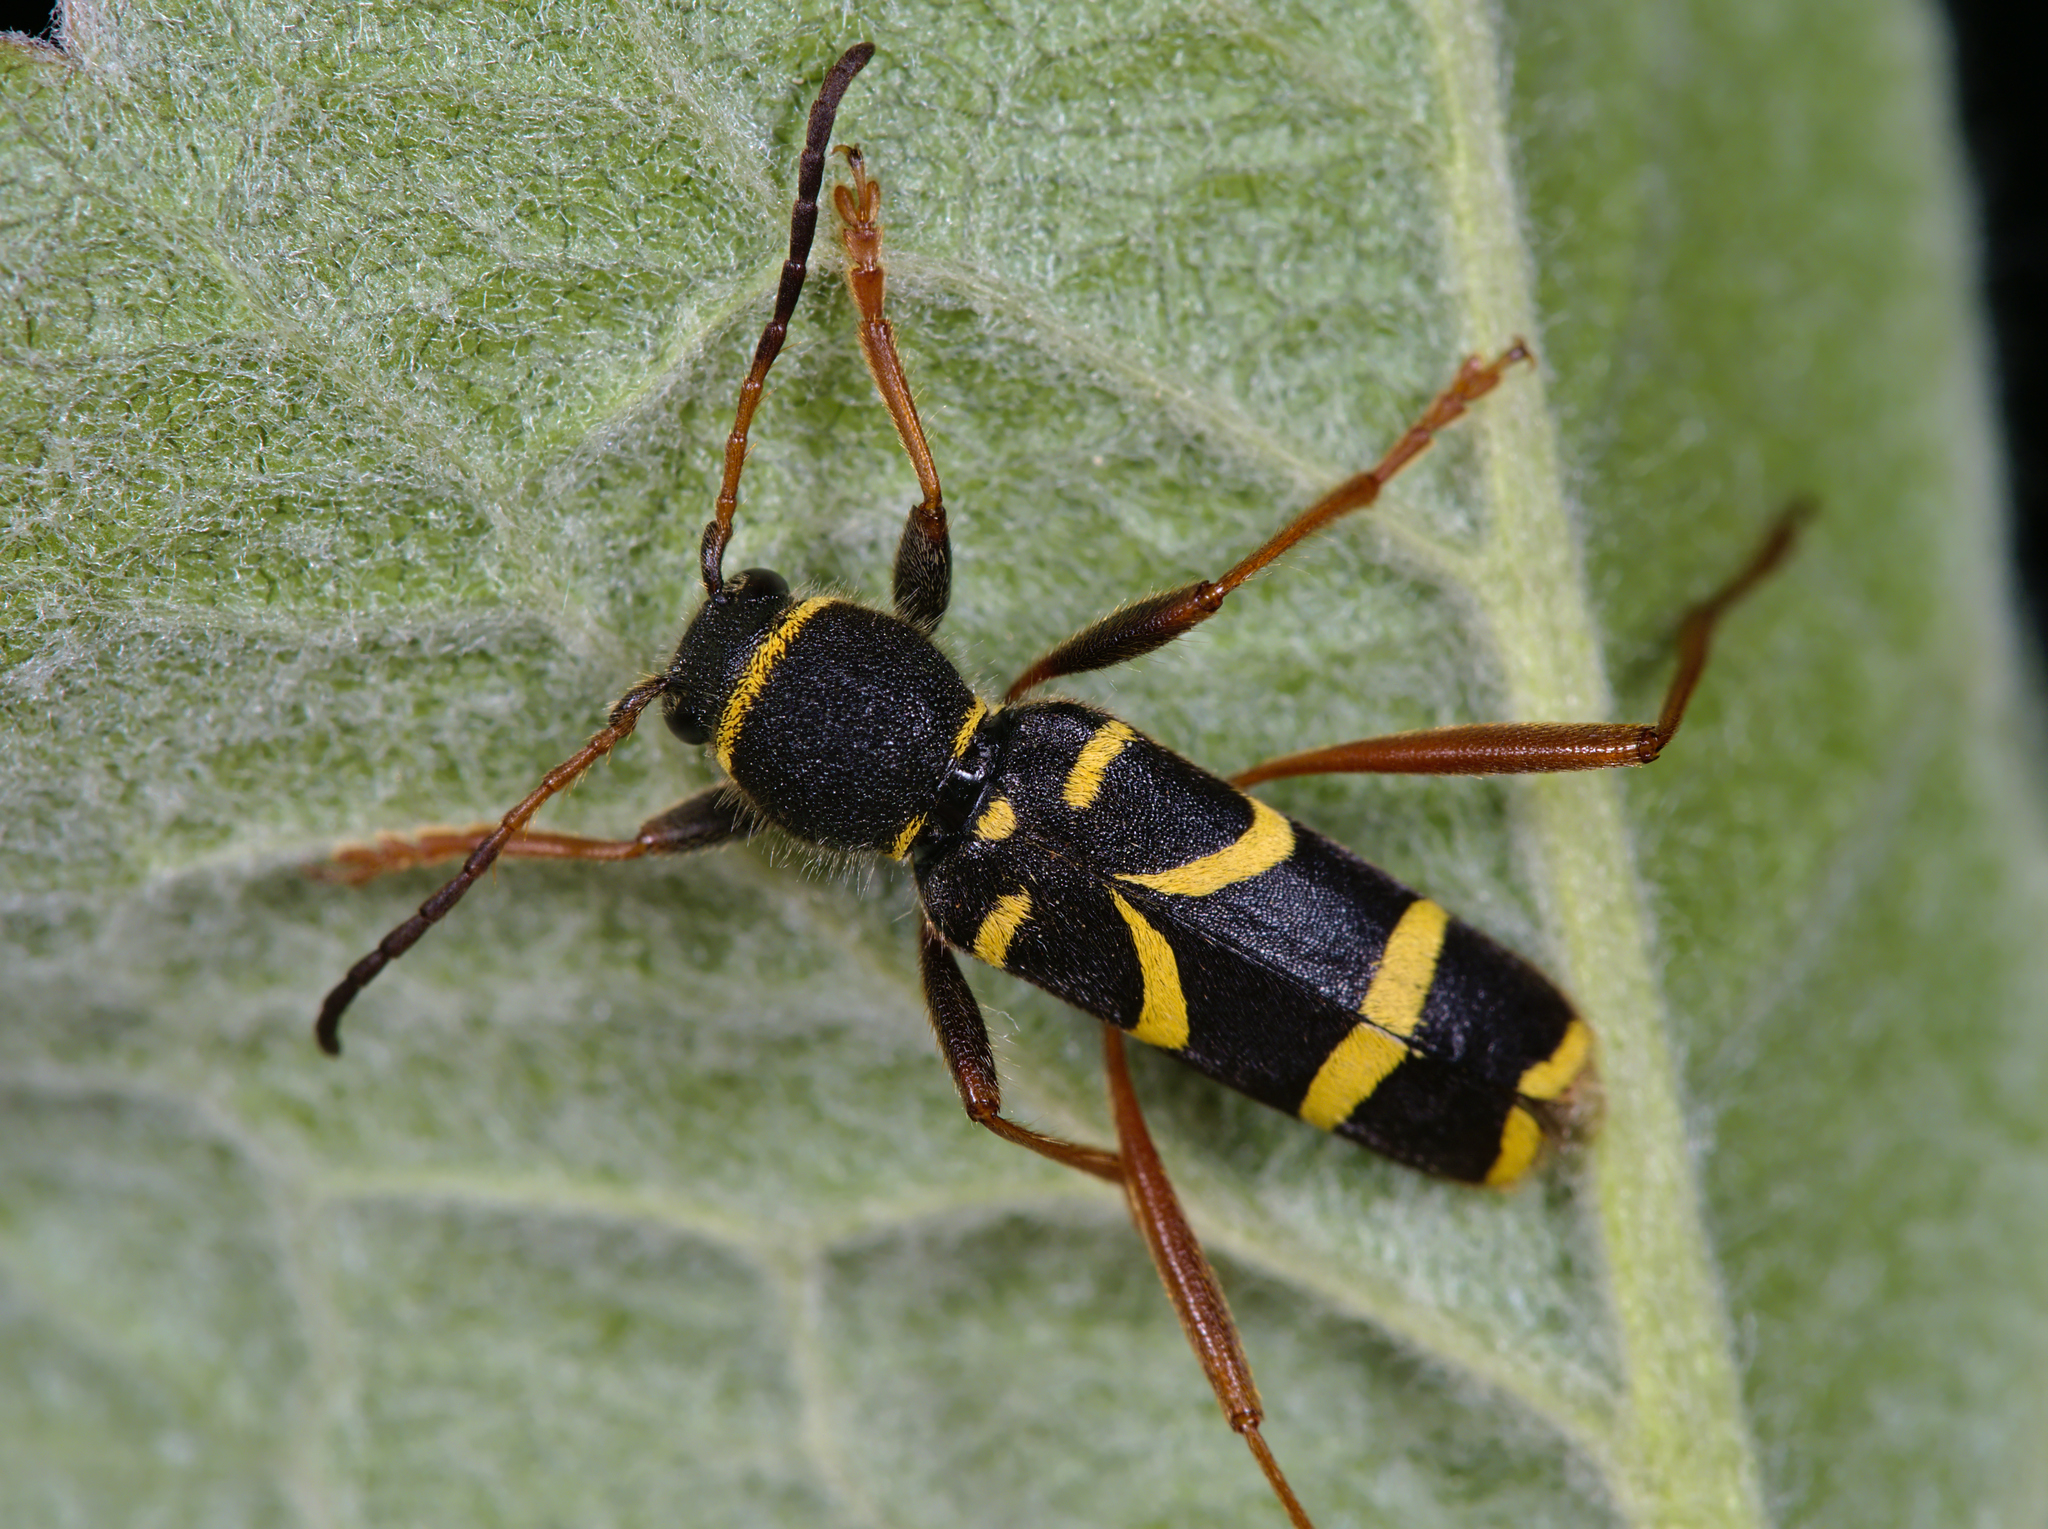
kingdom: Animalia
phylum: Arthropoda
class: Insecta
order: Coleoptera
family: Cerambycidae
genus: Clytus
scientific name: Clytus arietis
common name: Wasp beetle
